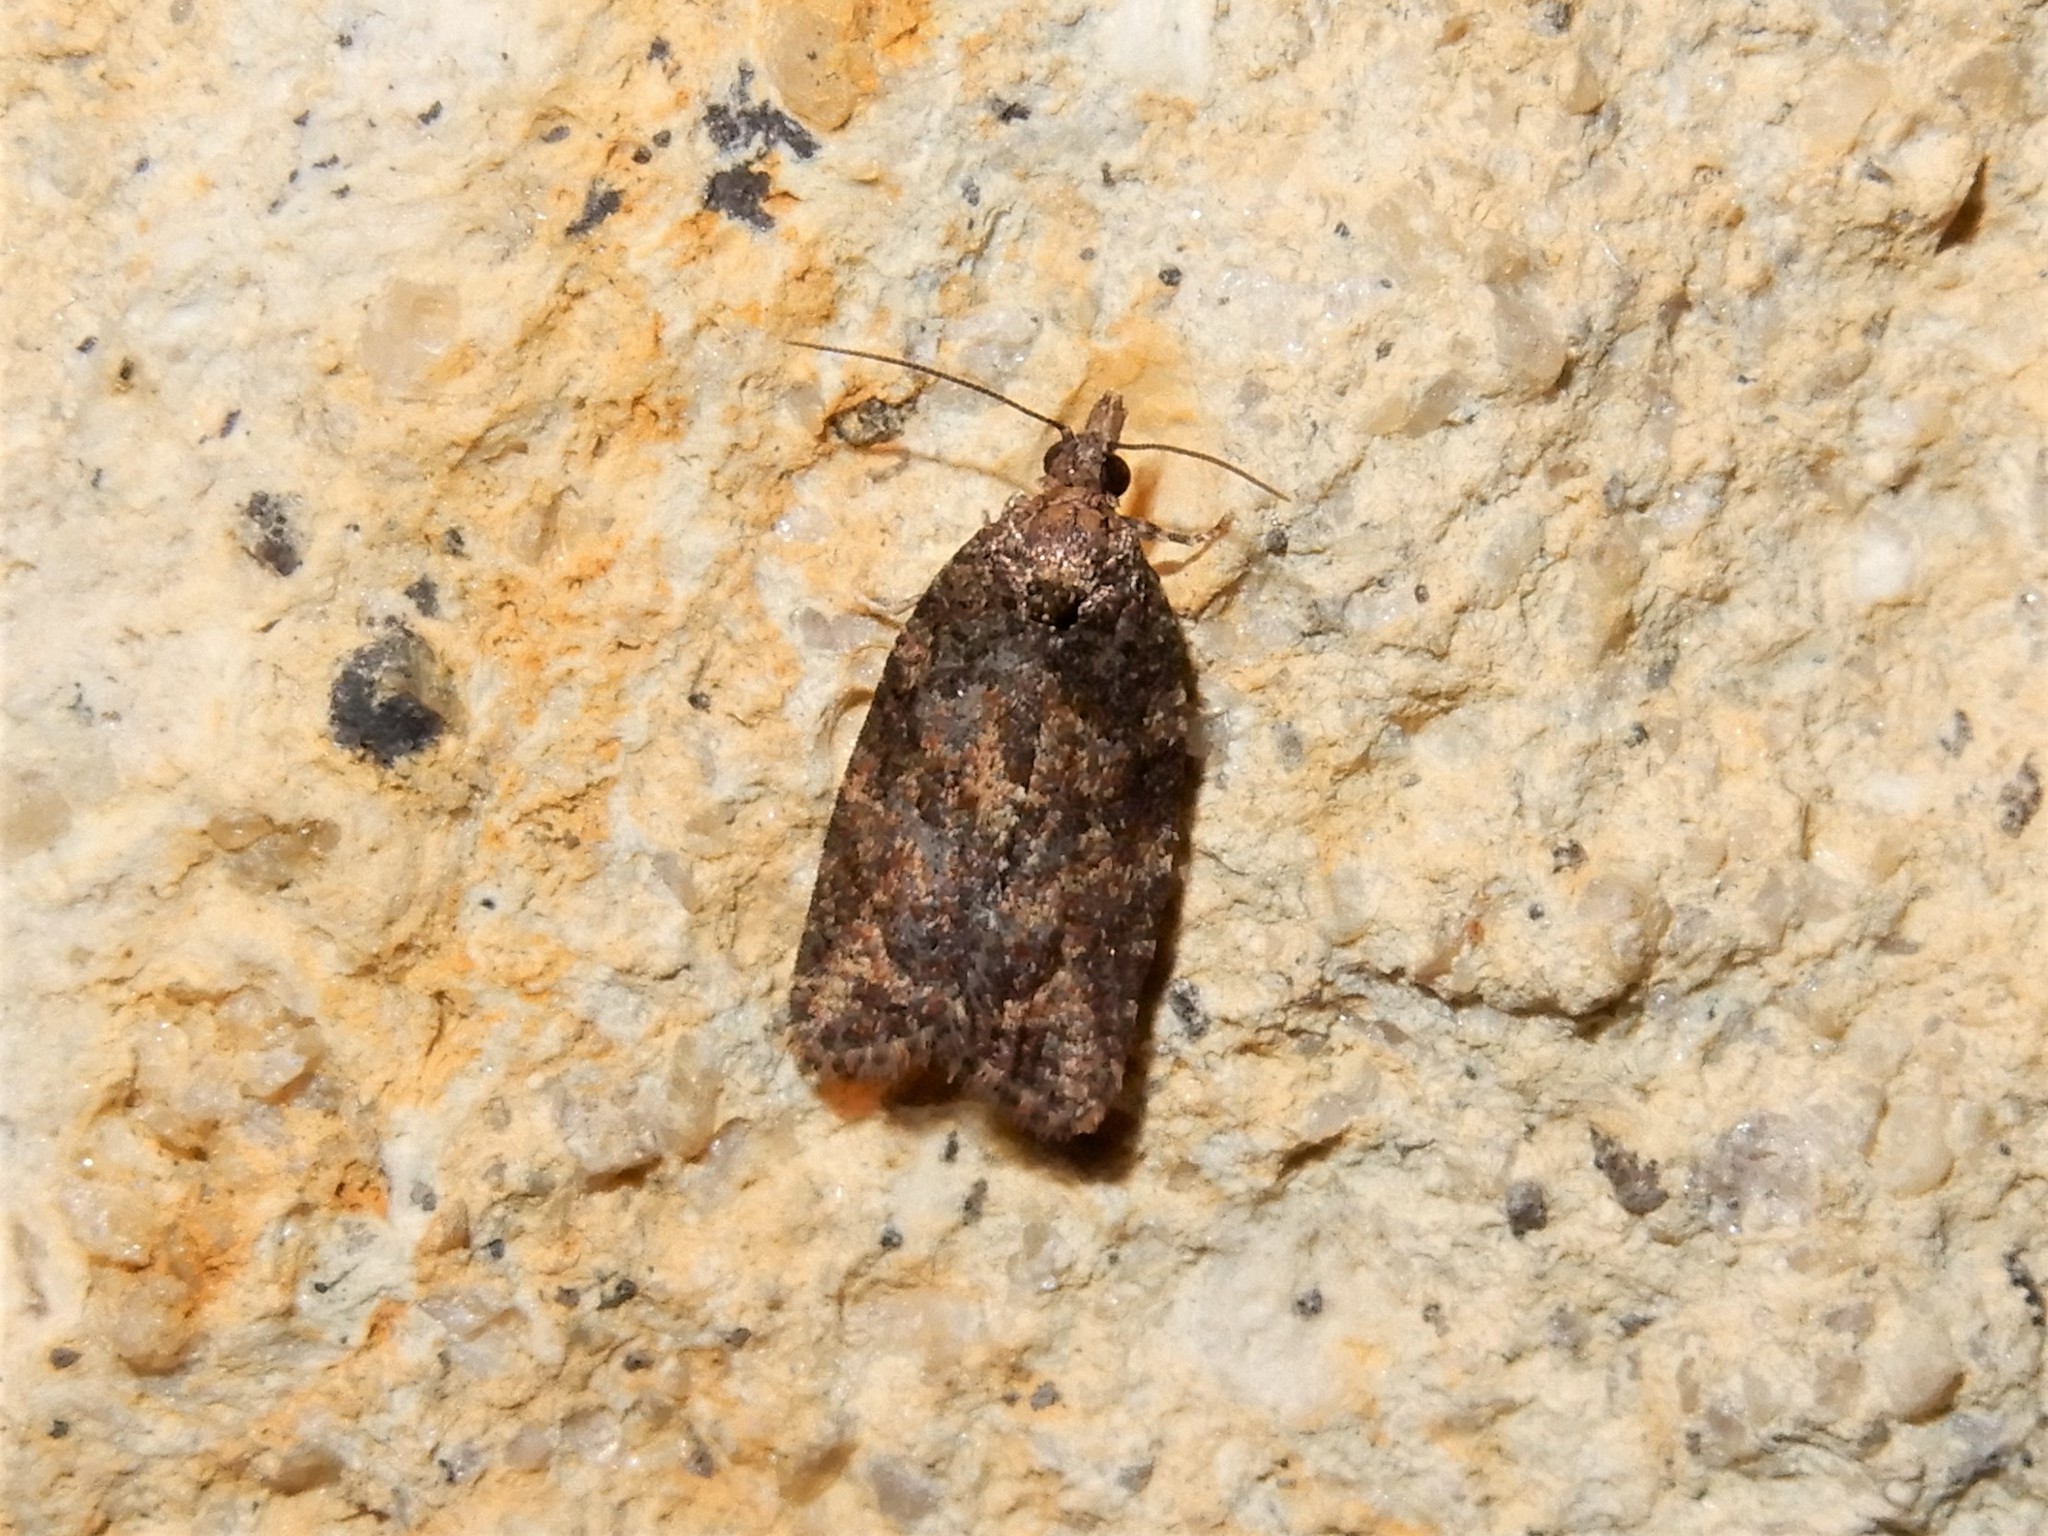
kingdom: Animalia
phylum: Arthropoda
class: Insecta
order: Lepidoptera
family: Tortricidae
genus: Capua
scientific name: Capua intractana
